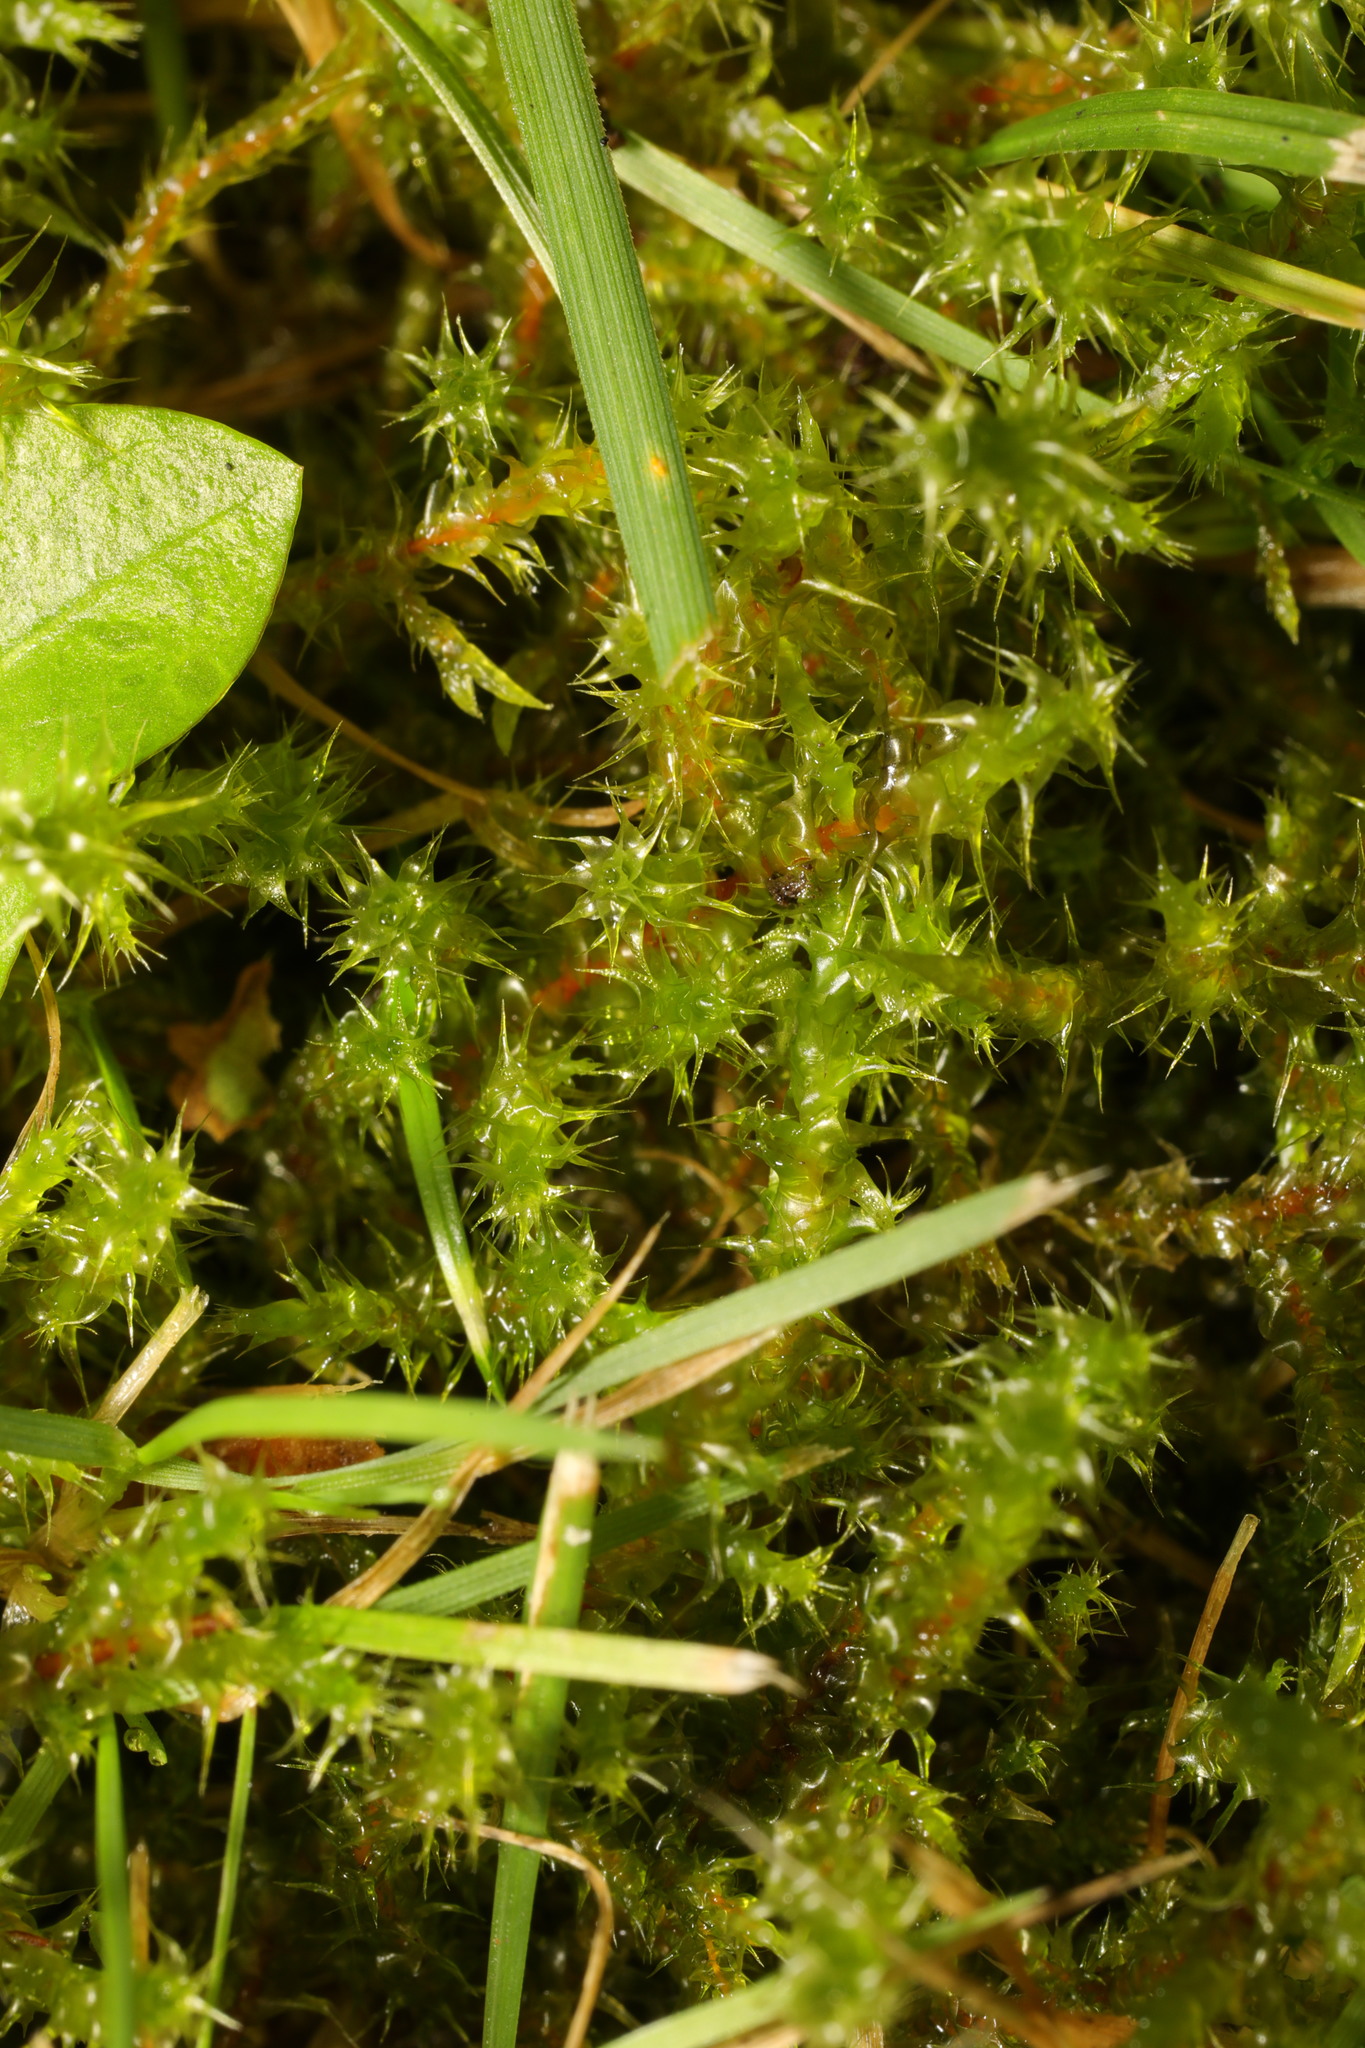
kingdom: Plantae
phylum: Bryophyta
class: Bryopsida
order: Hypnales
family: Hylocomiaceae
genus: Rhytidiadelphus
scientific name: Rhytidiadelphus squarrosus
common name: Springy turf-moss
